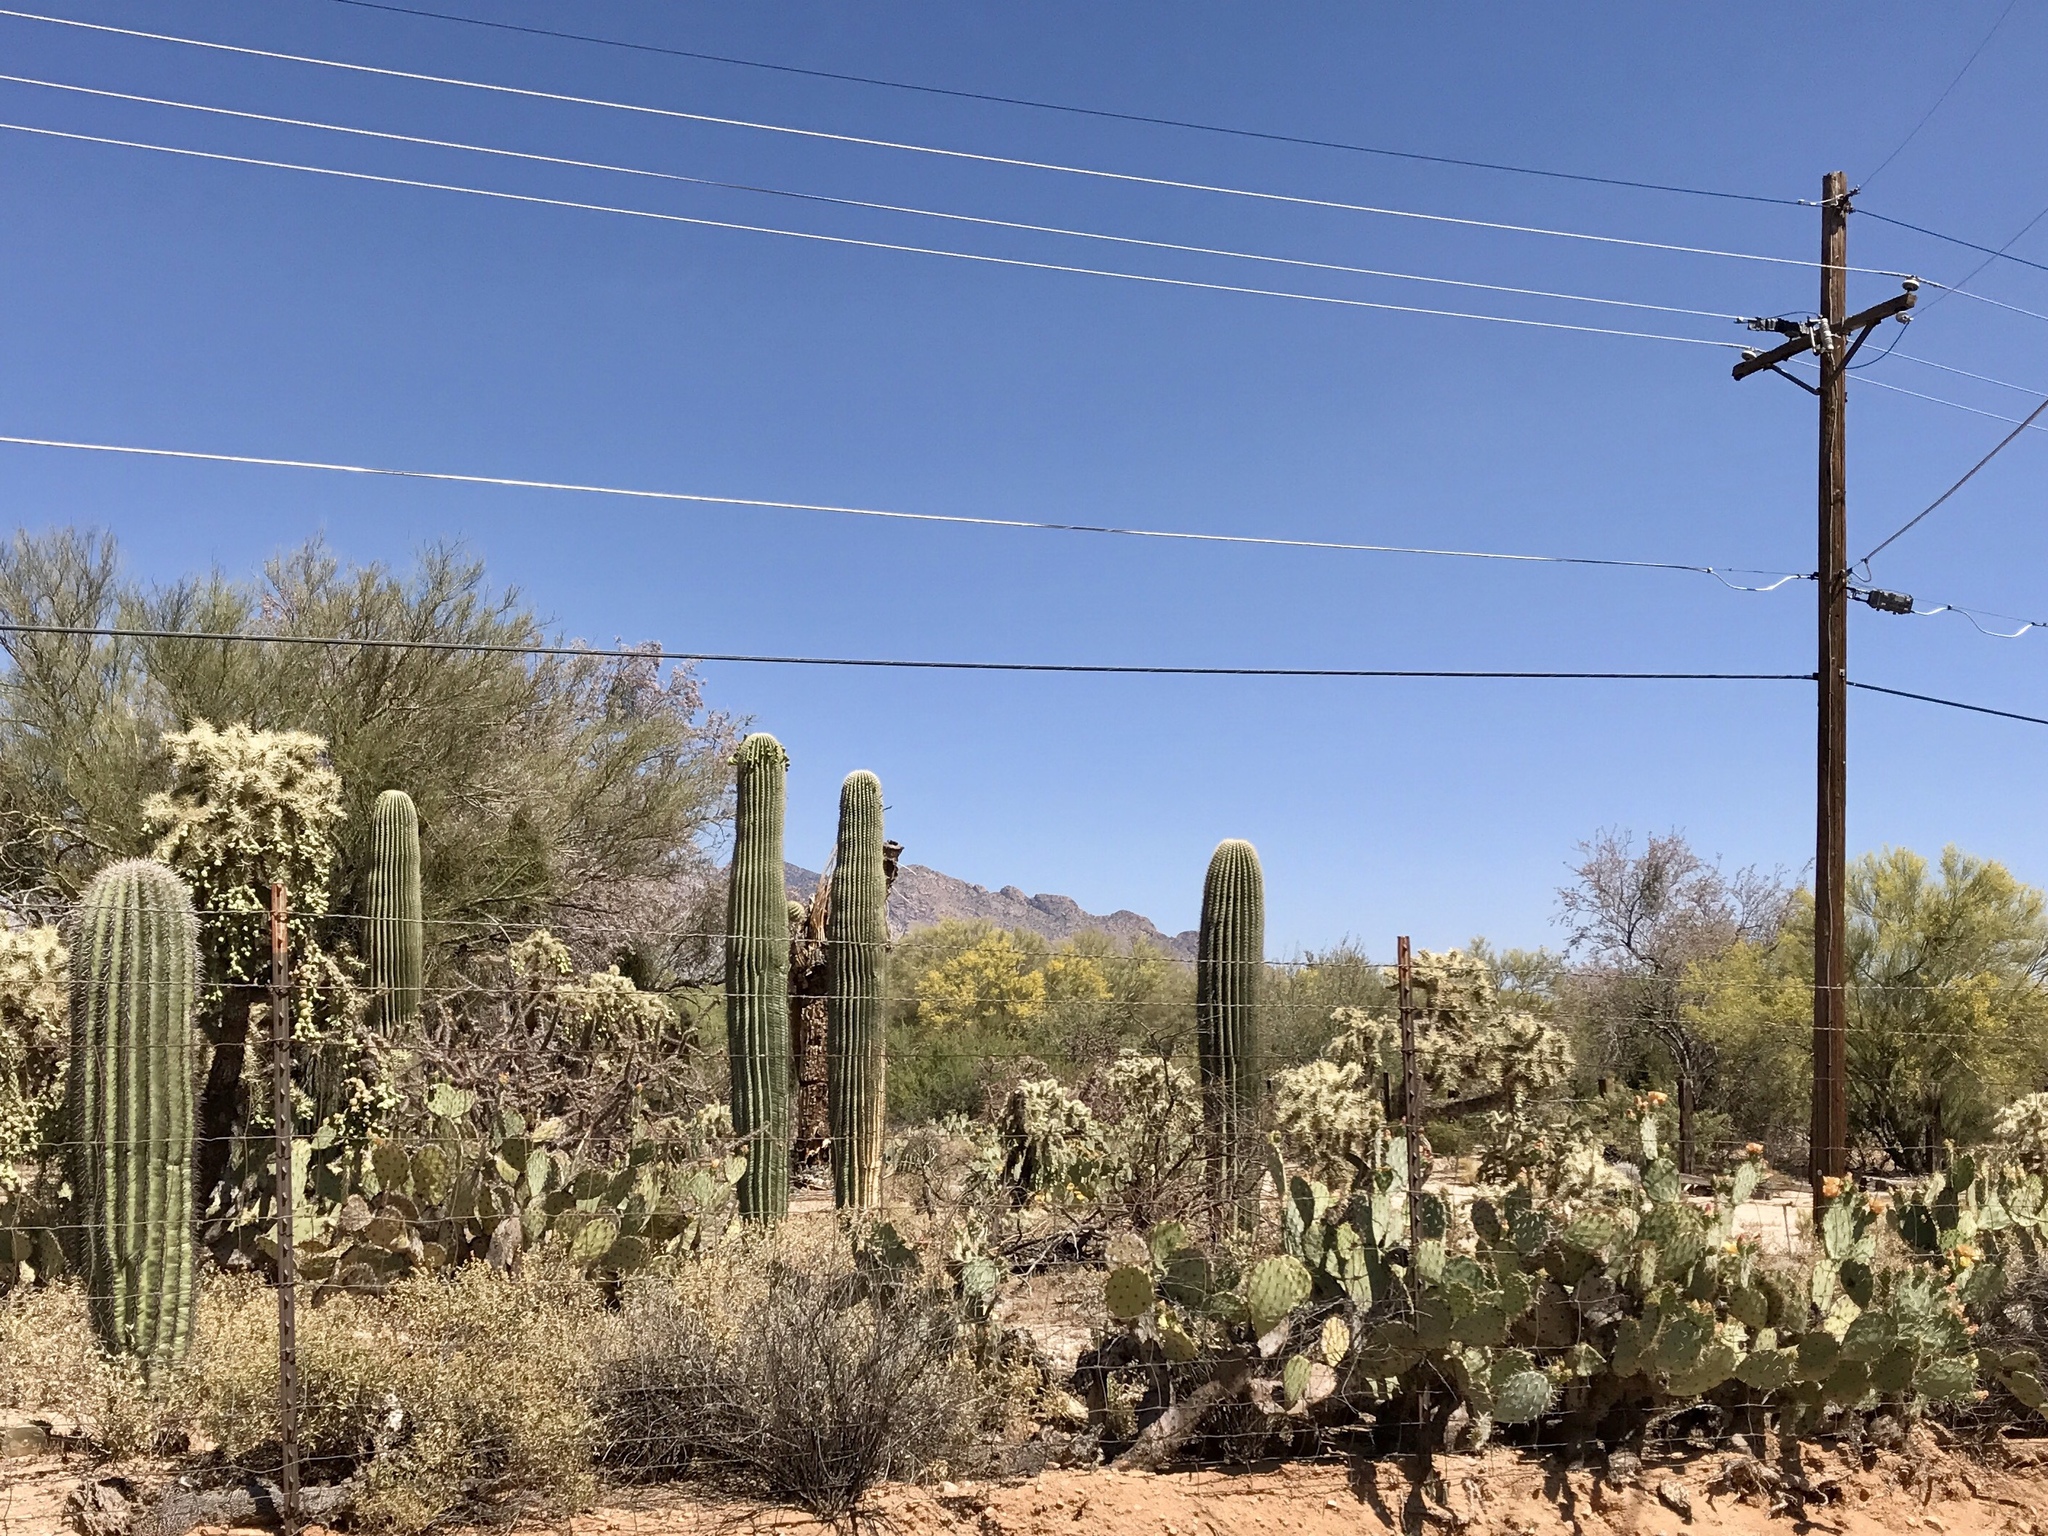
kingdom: Plantae
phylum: Tracheophyta
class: Magnoliopsida
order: Caryophyllales
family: Cactaceae
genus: Carnegiea
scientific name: Carnegiea gigantea
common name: Saguaro
